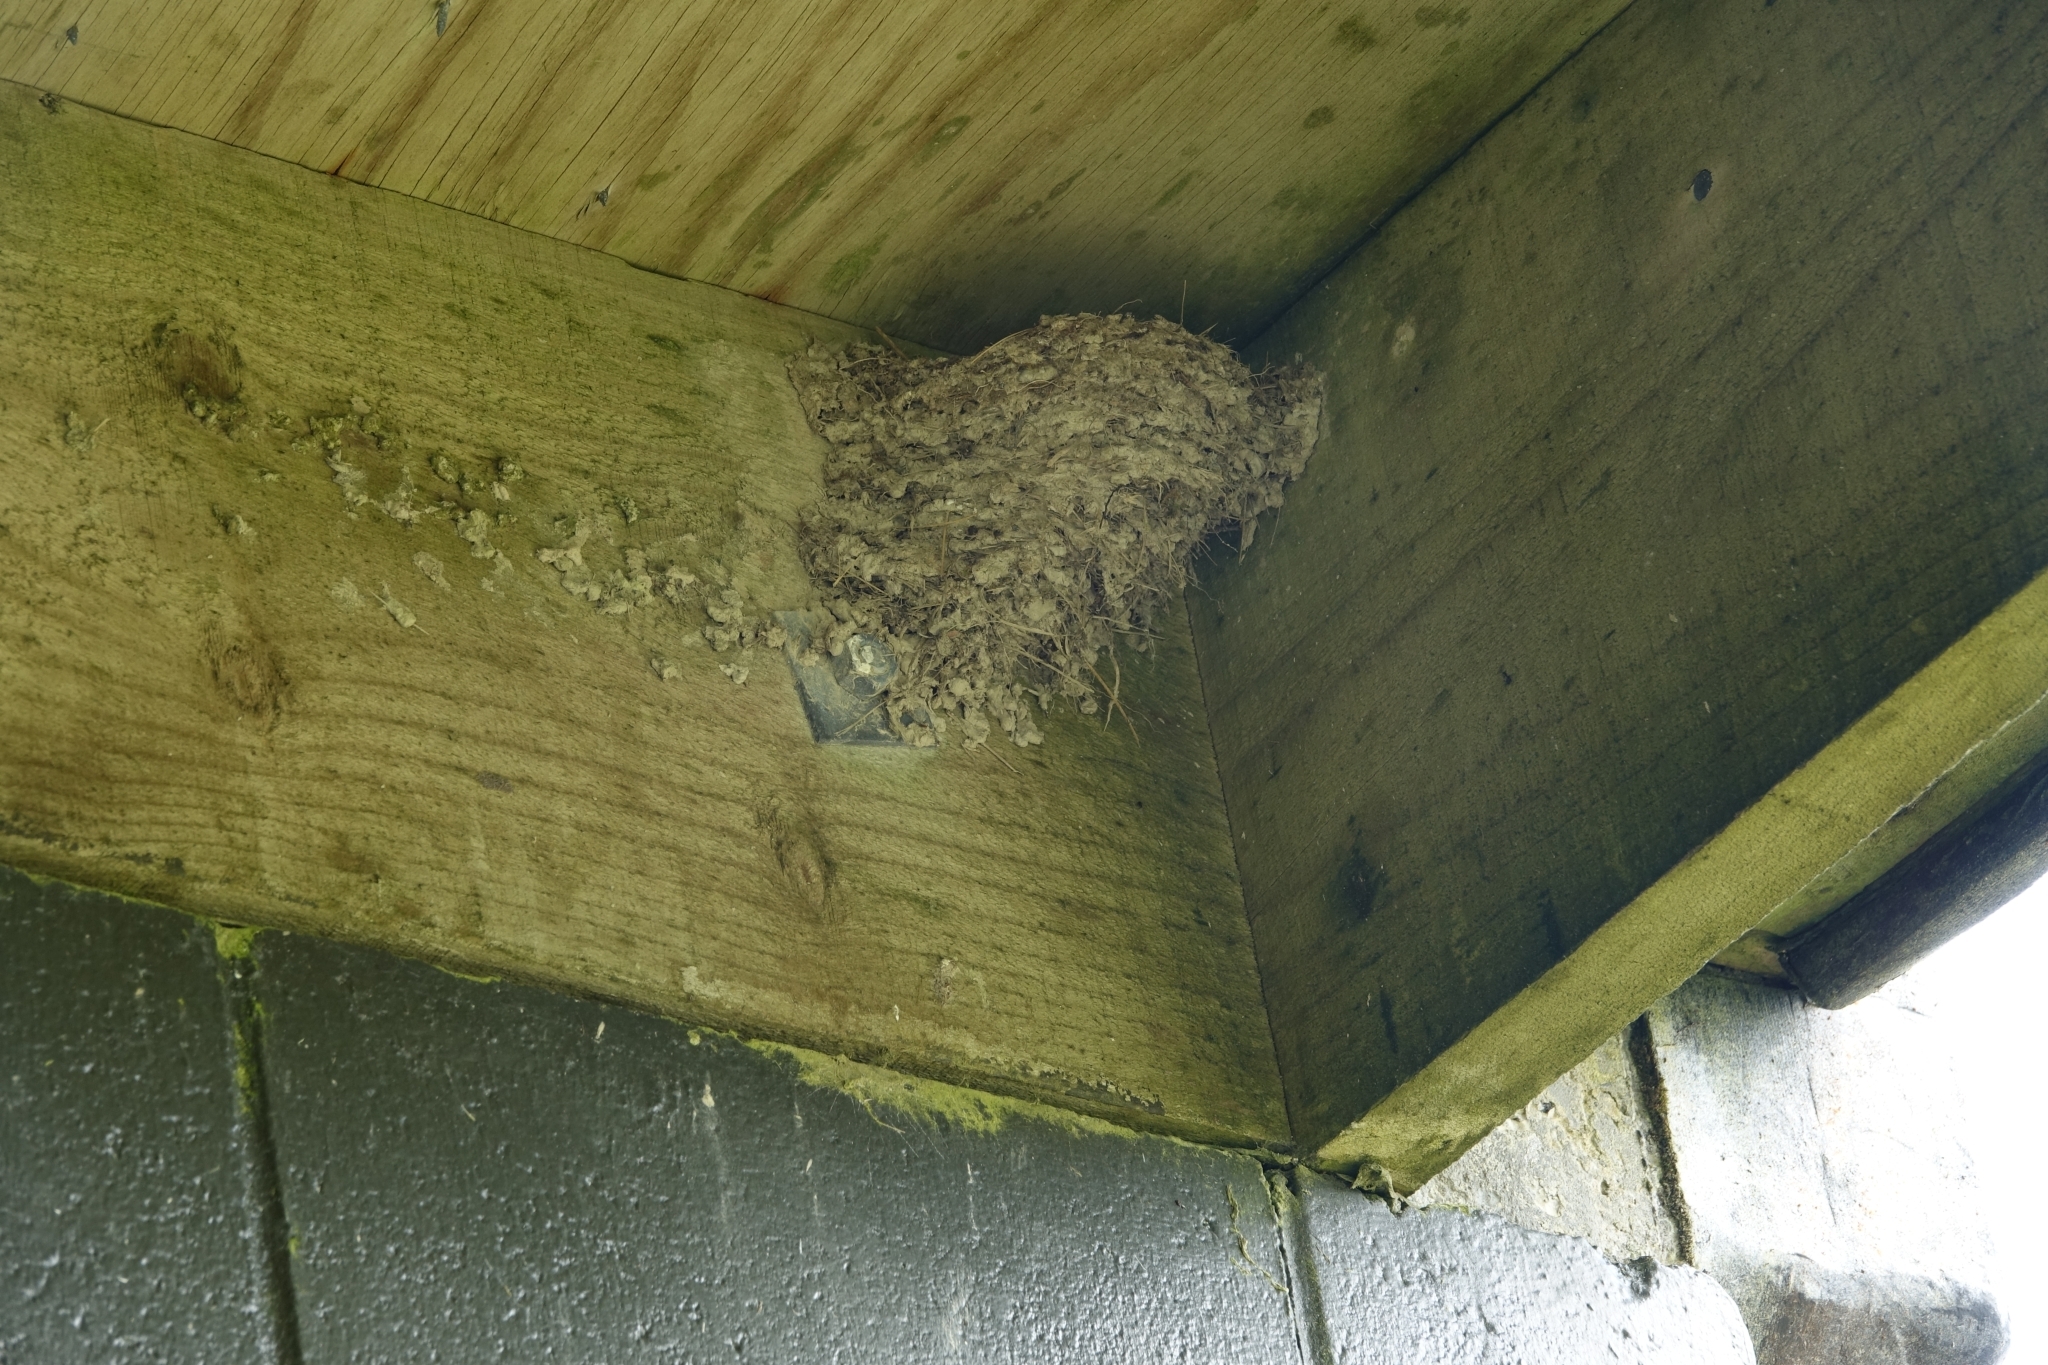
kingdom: Animalia
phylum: Chordata
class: Aves
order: Passeriformes
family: Hirundinidae
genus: Hirundo
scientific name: Hirundo neoxena
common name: Welcome swallow
